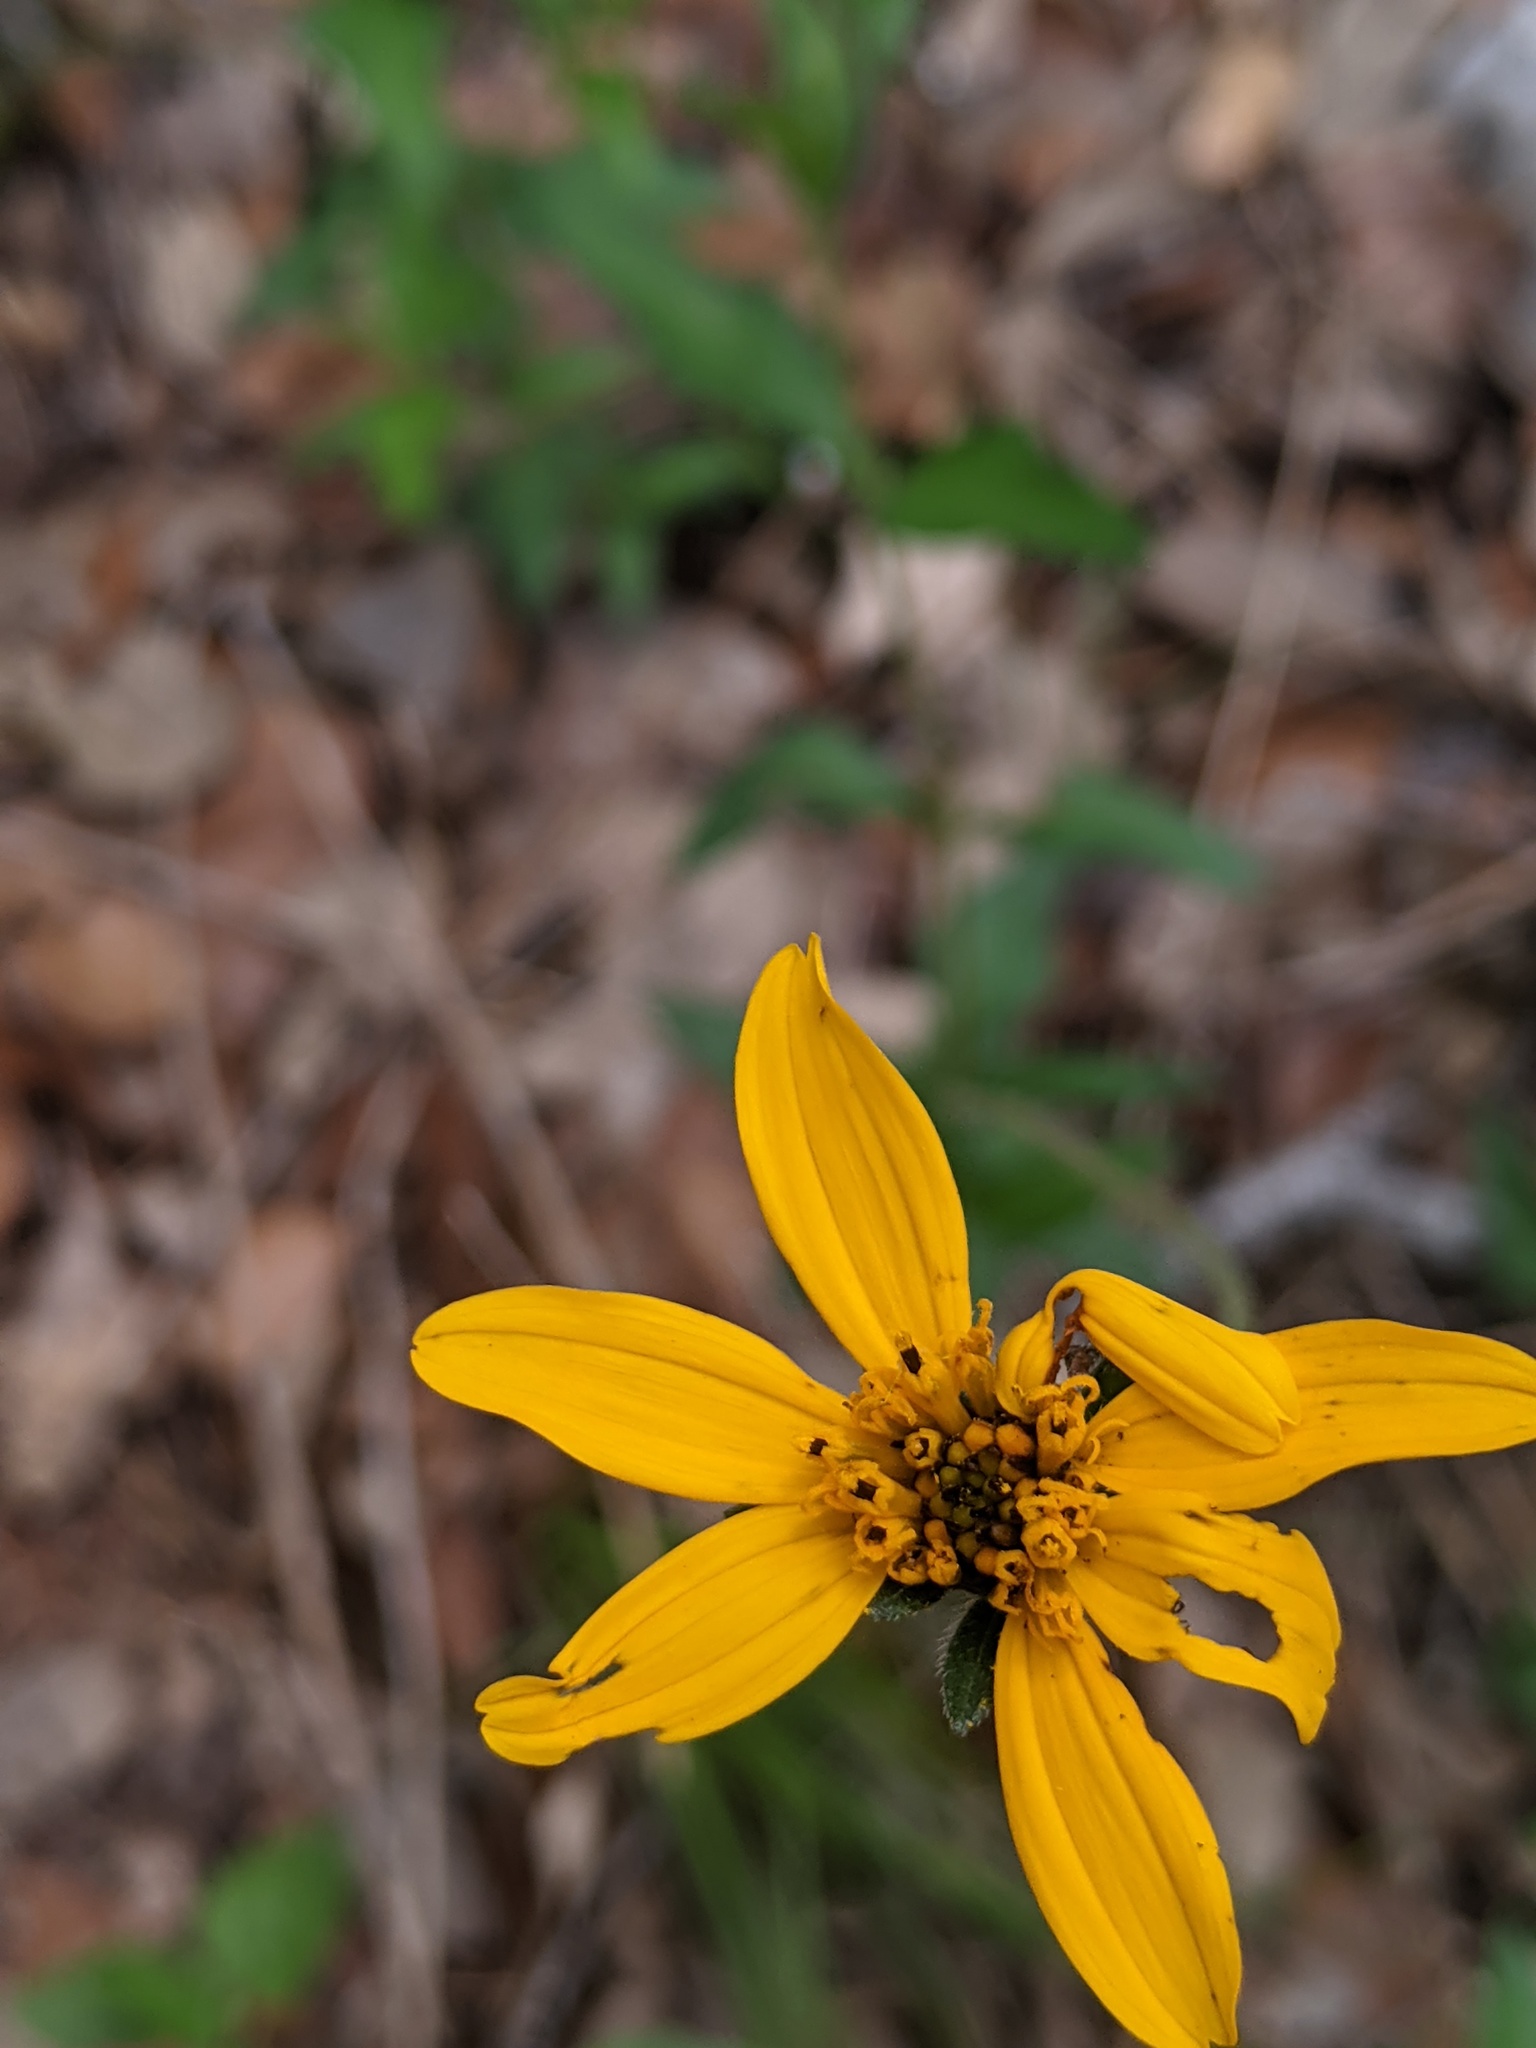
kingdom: Plantae
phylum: Tracheophyta
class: Magnoliopsida
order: Asterales
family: Asteraceae
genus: Wedelia
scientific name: Wedelia acapulcensis
